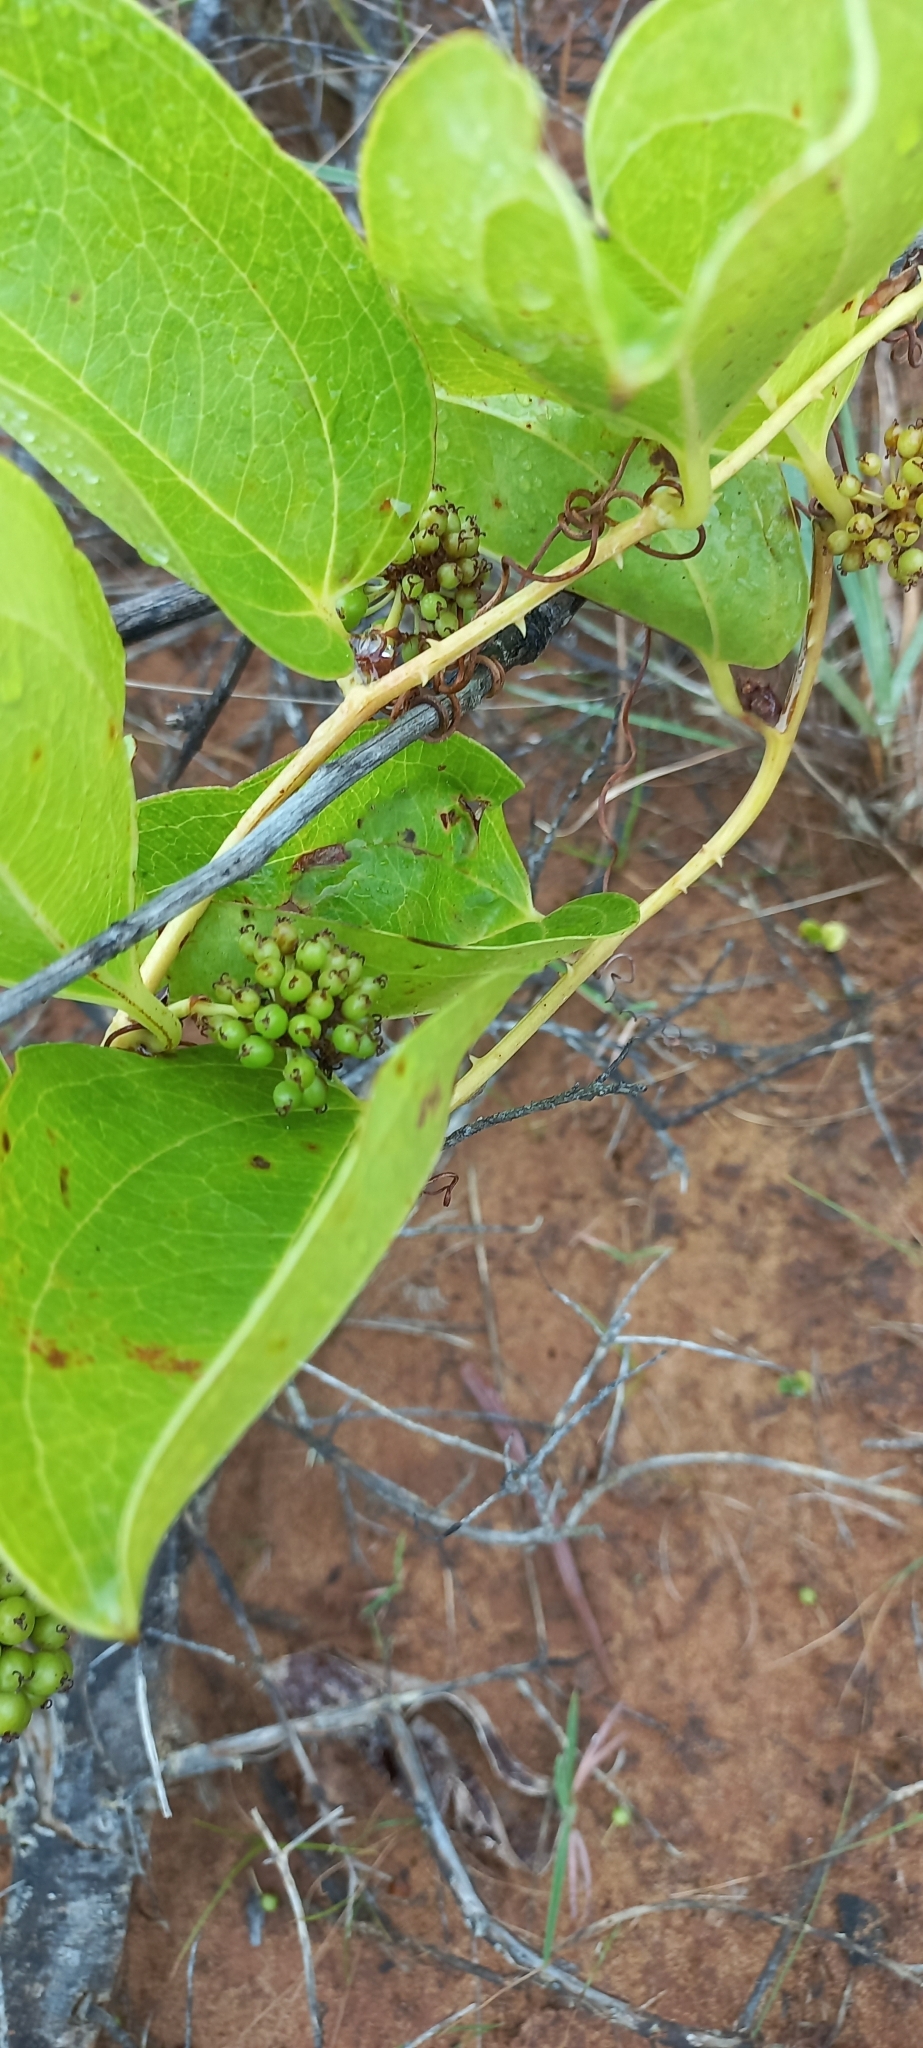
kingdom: Plantae
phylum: Tracheophyta
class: Liliopsida
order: Liliales
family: Smilacaceae
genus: Smilax
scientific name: Smilax anceps
